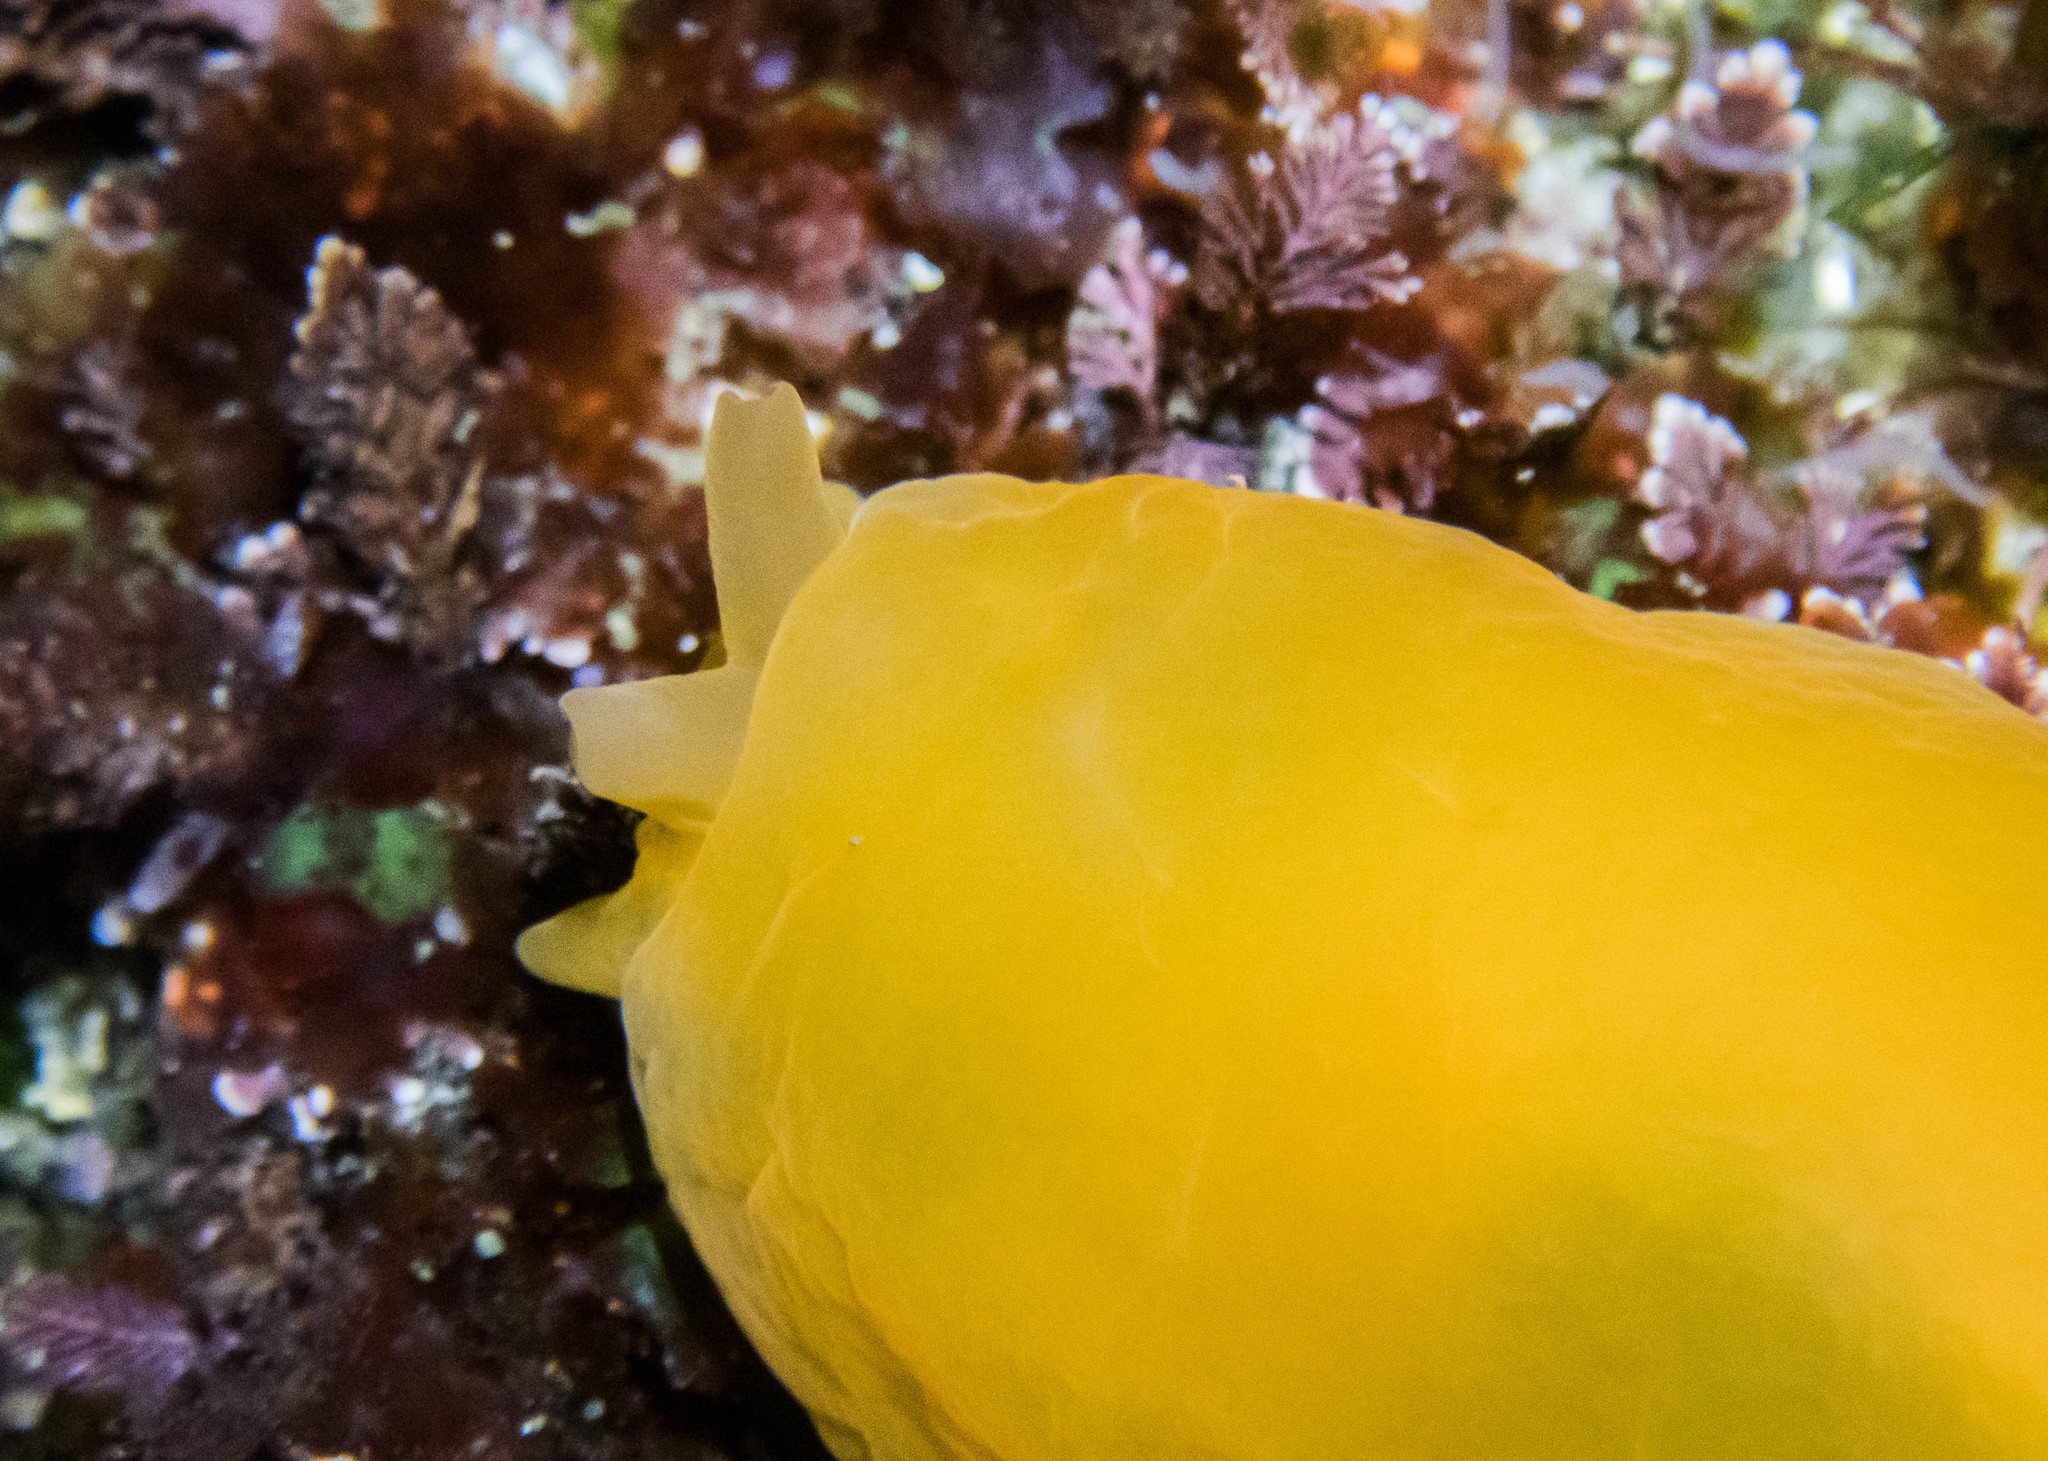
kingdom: Animalia
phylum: Mollusca
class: Gastropoda
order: Pleurobranchida
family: Pleurobranchidae
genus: Berthellina
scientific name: Berthellina citrina
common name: Lemon pleurobranch
